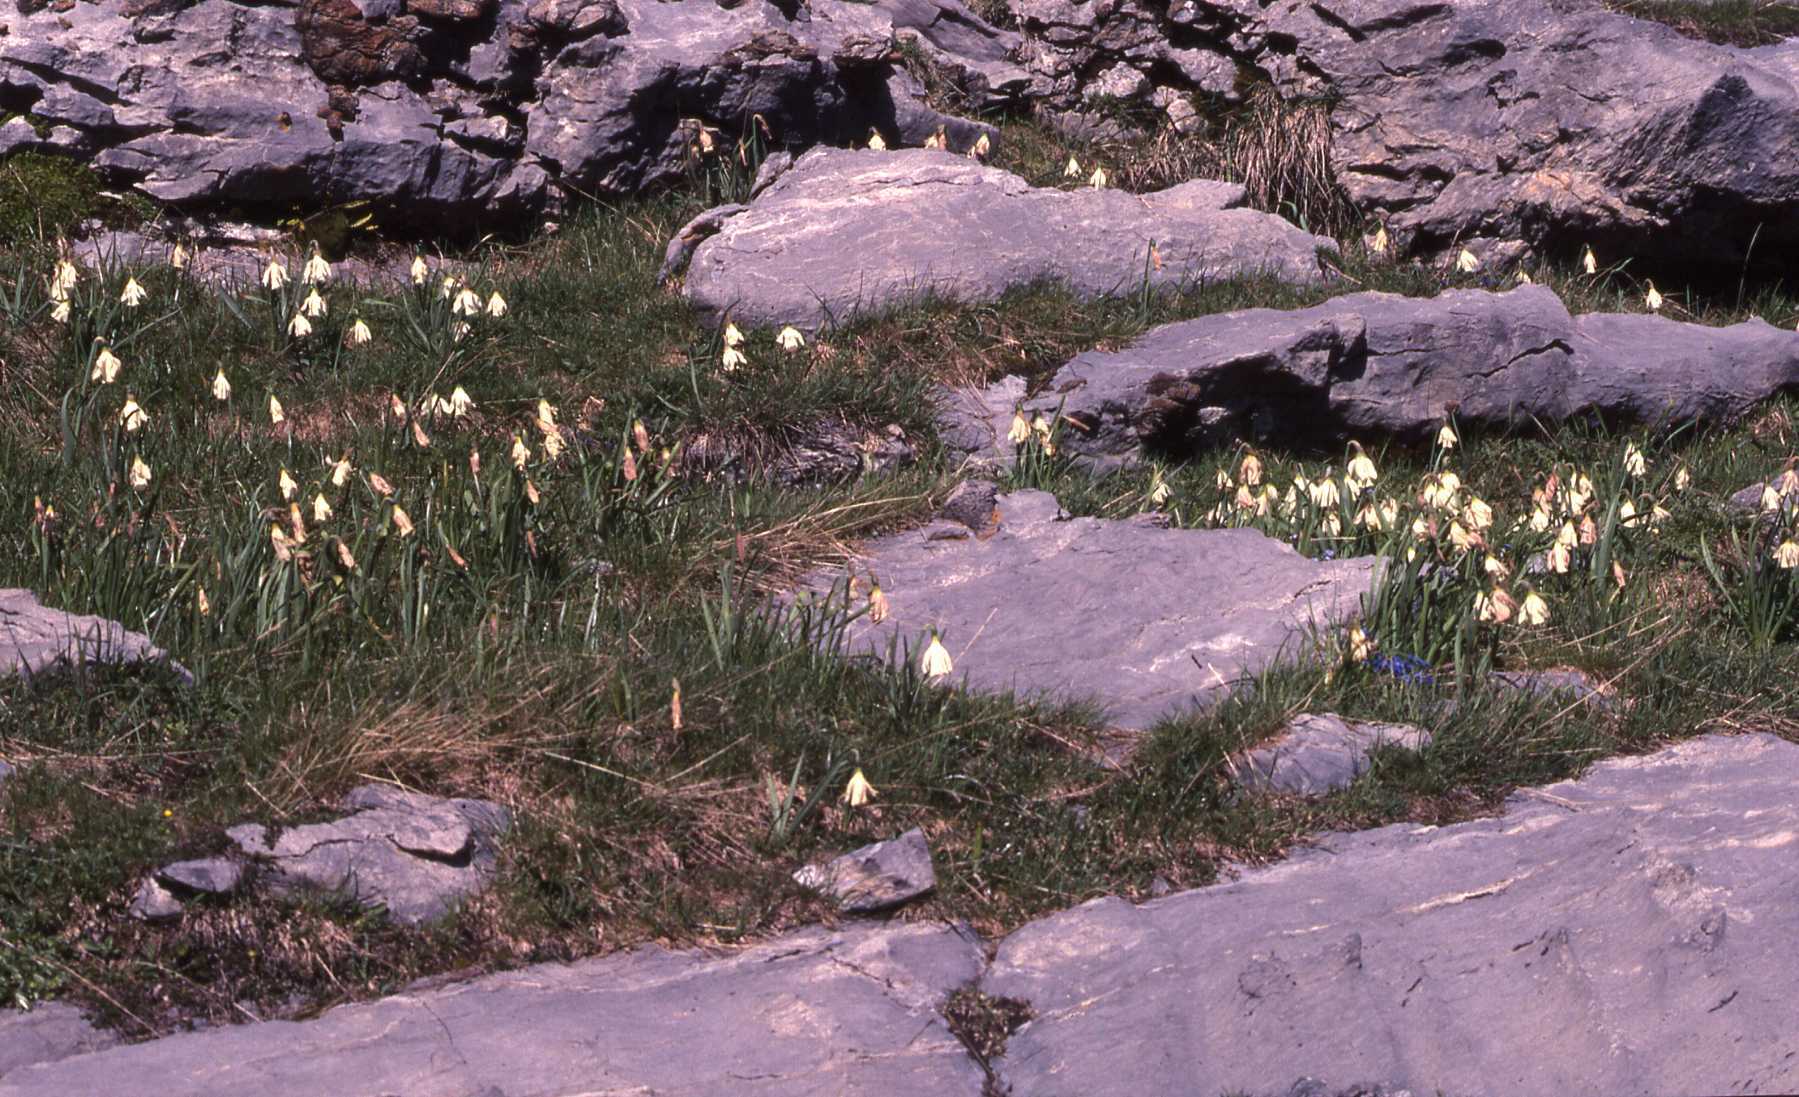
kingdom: Plantae
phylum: Tracheophyta
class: Liliopsida
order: Asparagales
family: Amaryllidaceae
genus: Narcissus
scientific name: Narcissus moschatus
